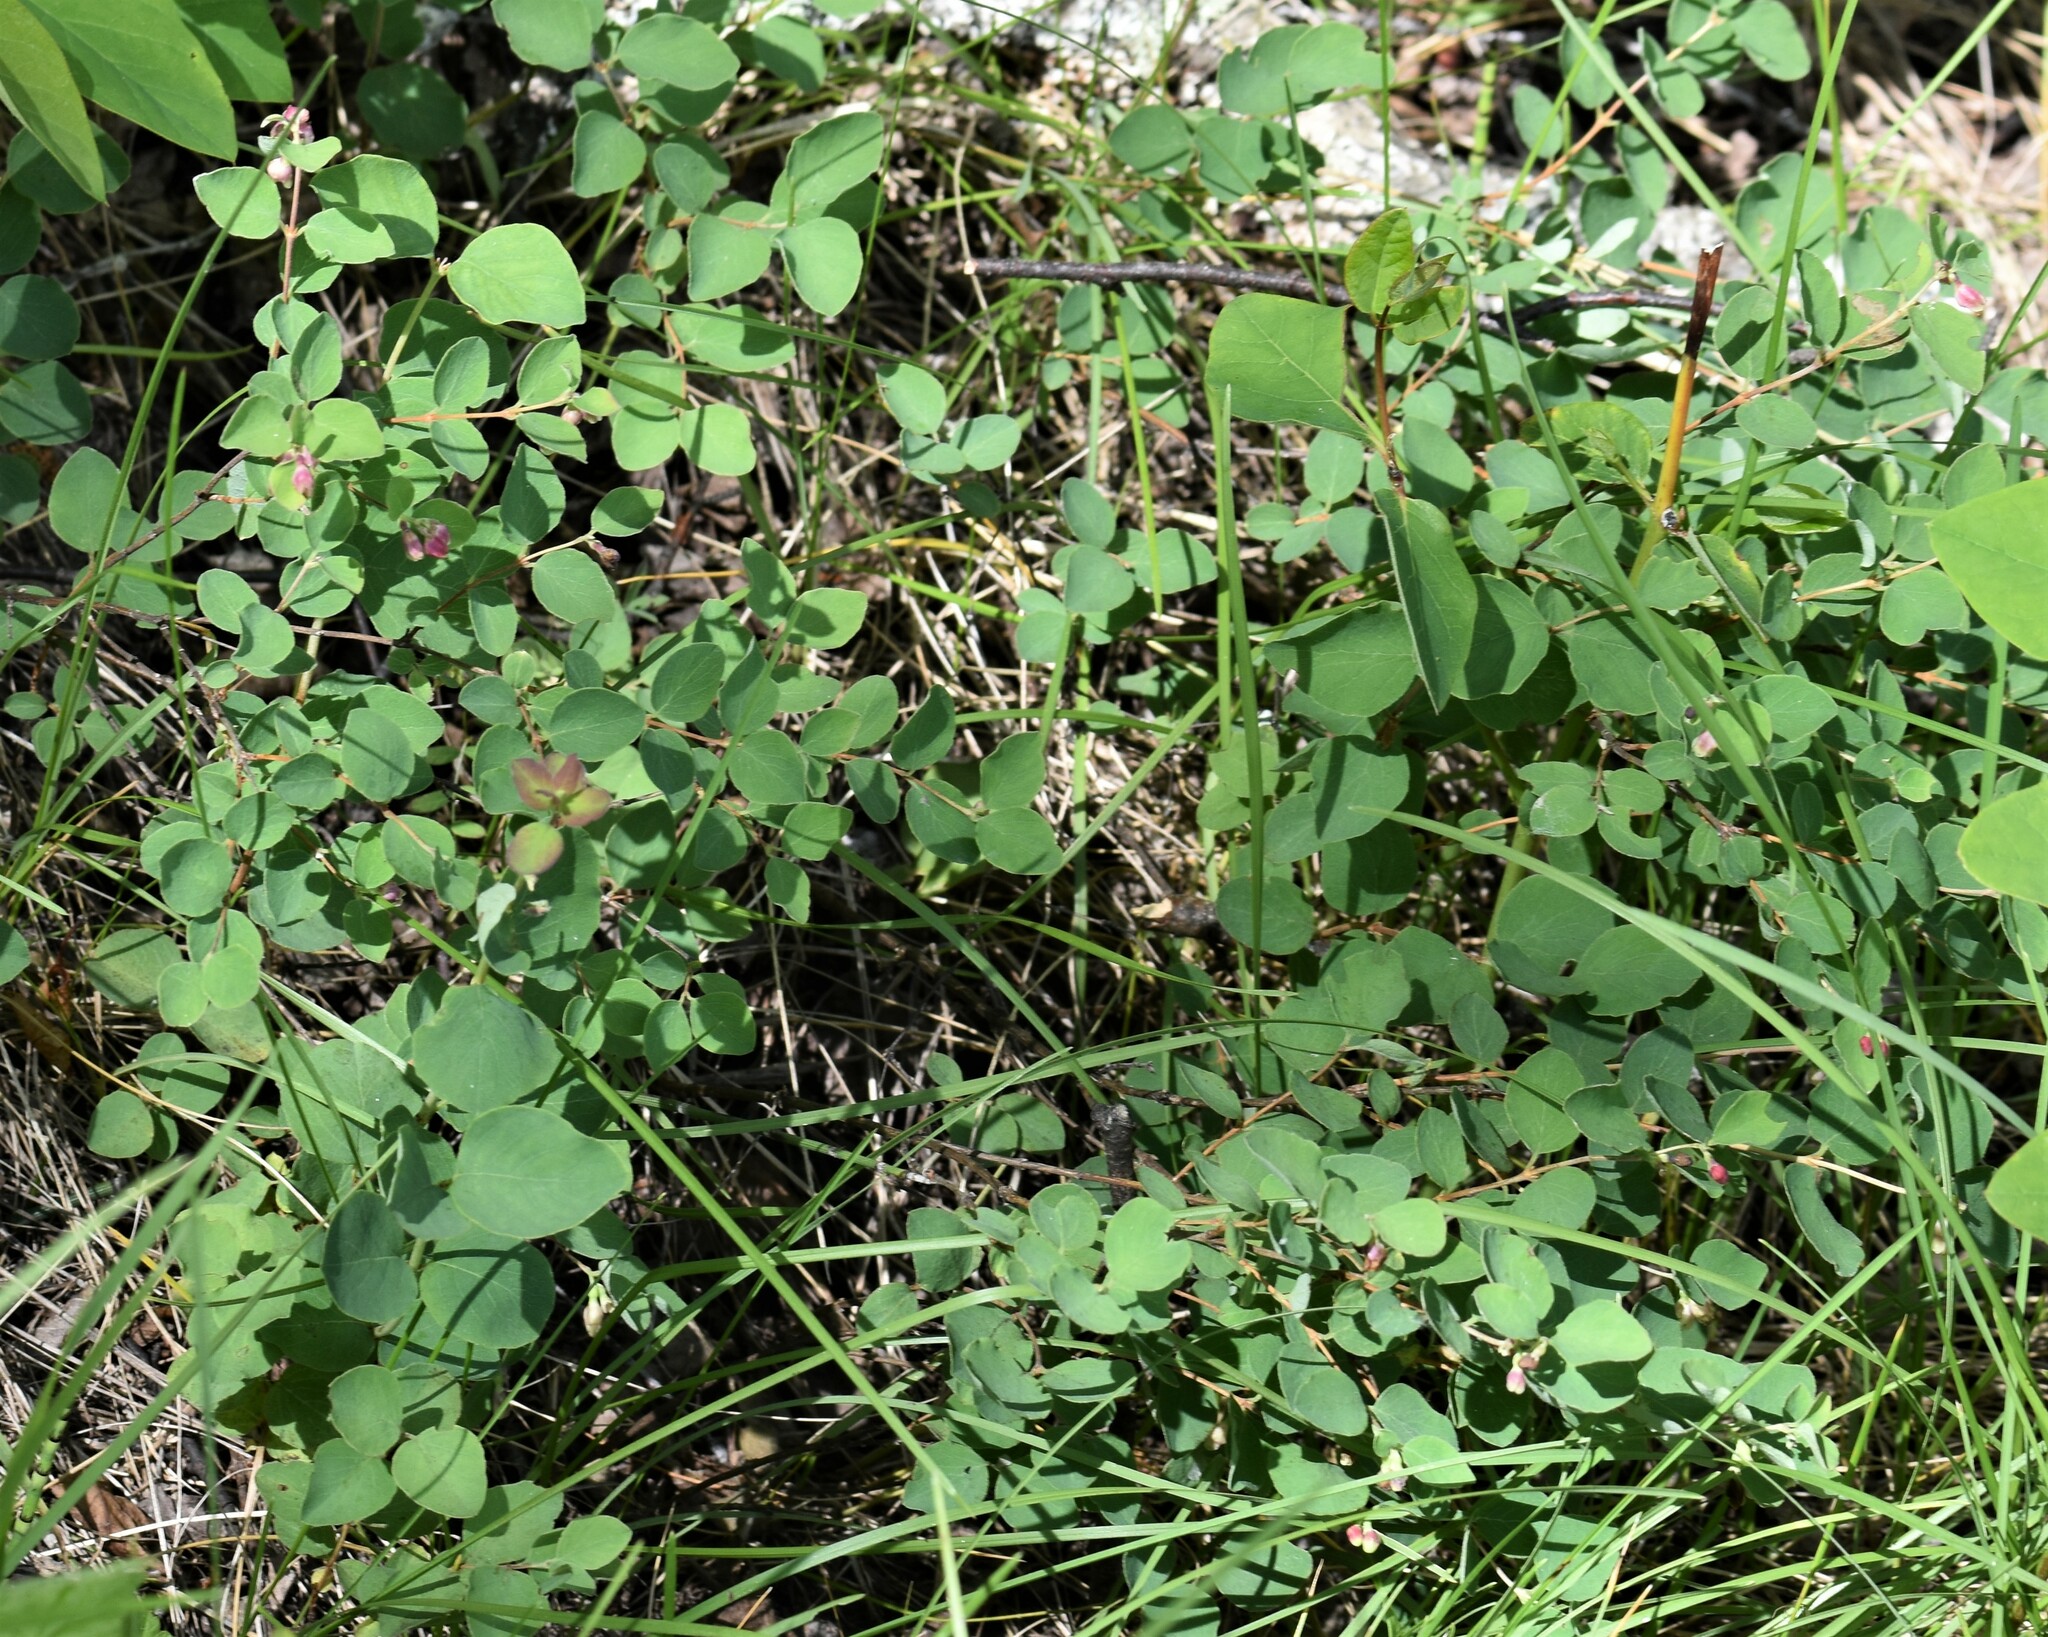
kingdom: Plantae
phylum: Tracheophyta
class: Magnoliopsida
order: Dipsacales
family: Caprifoliaceae
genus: Symphoricarpos
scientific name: Symphoricarpos occidentalis
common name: Wolfberry
